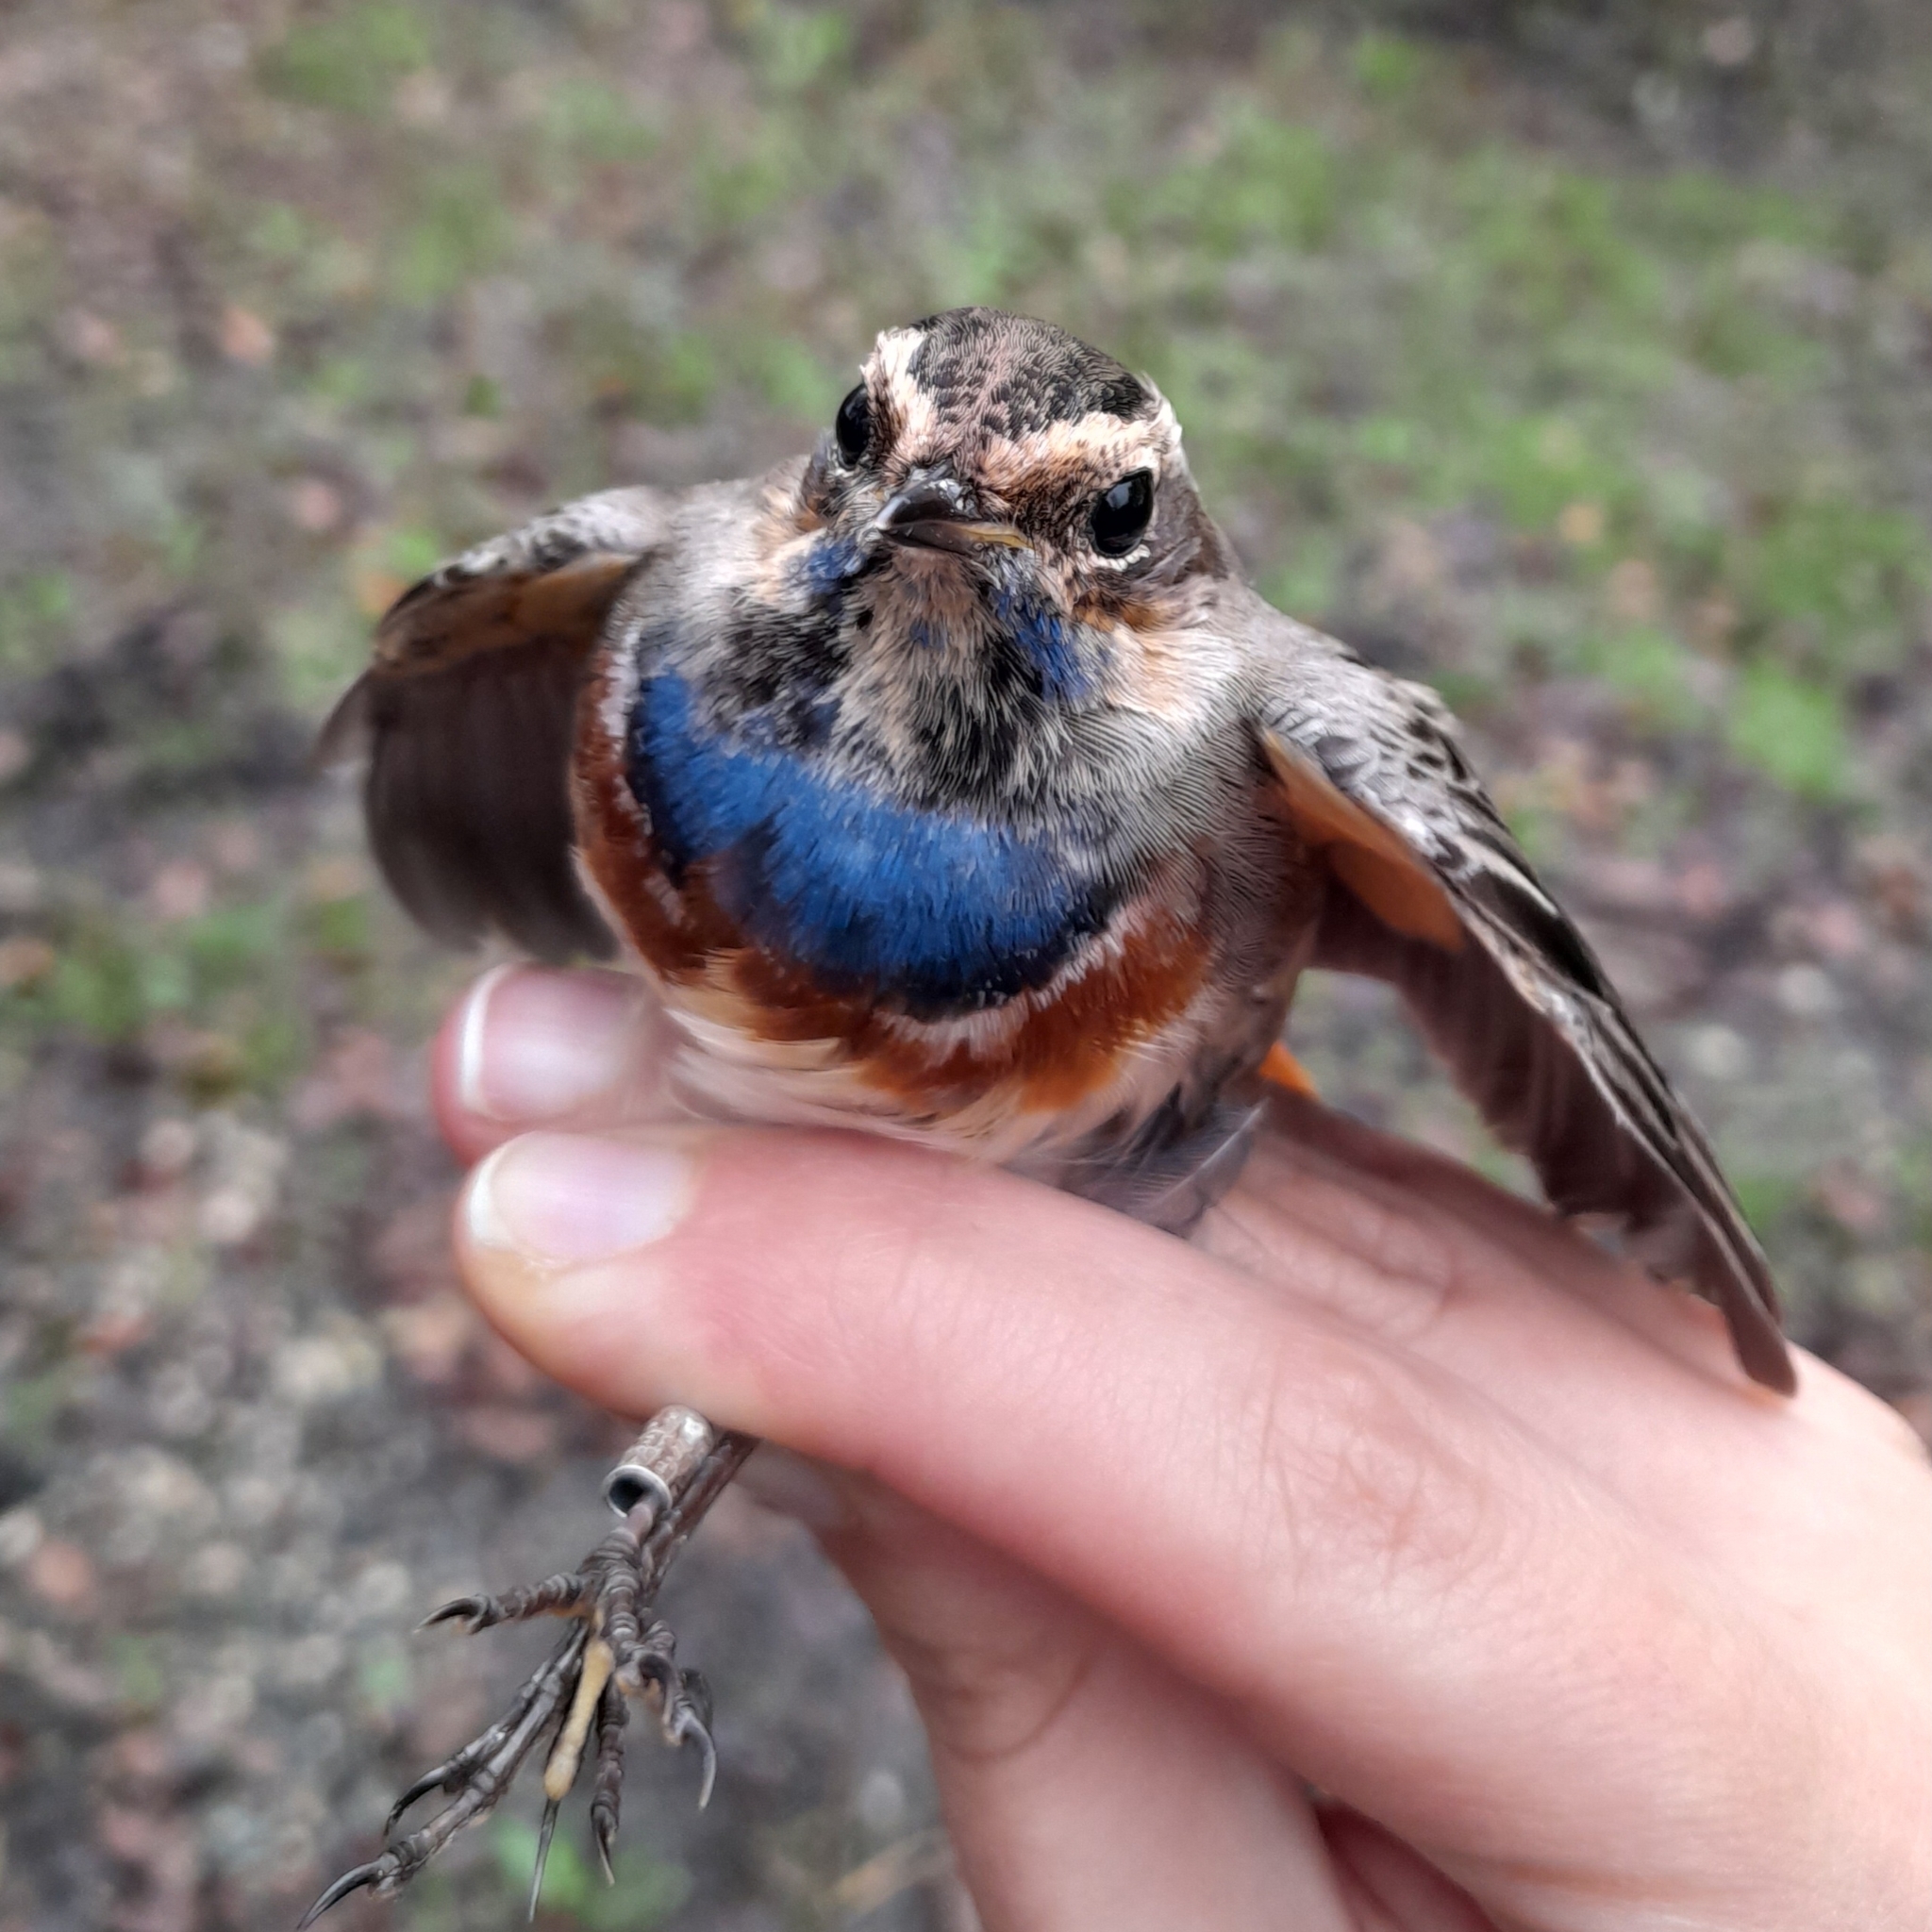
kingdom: Animalia
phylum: Chordata
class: Aves
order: Passeriformes
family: Muscicapidae
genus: Luscinia
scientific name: Luscinia svecica
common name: Bluethroat
